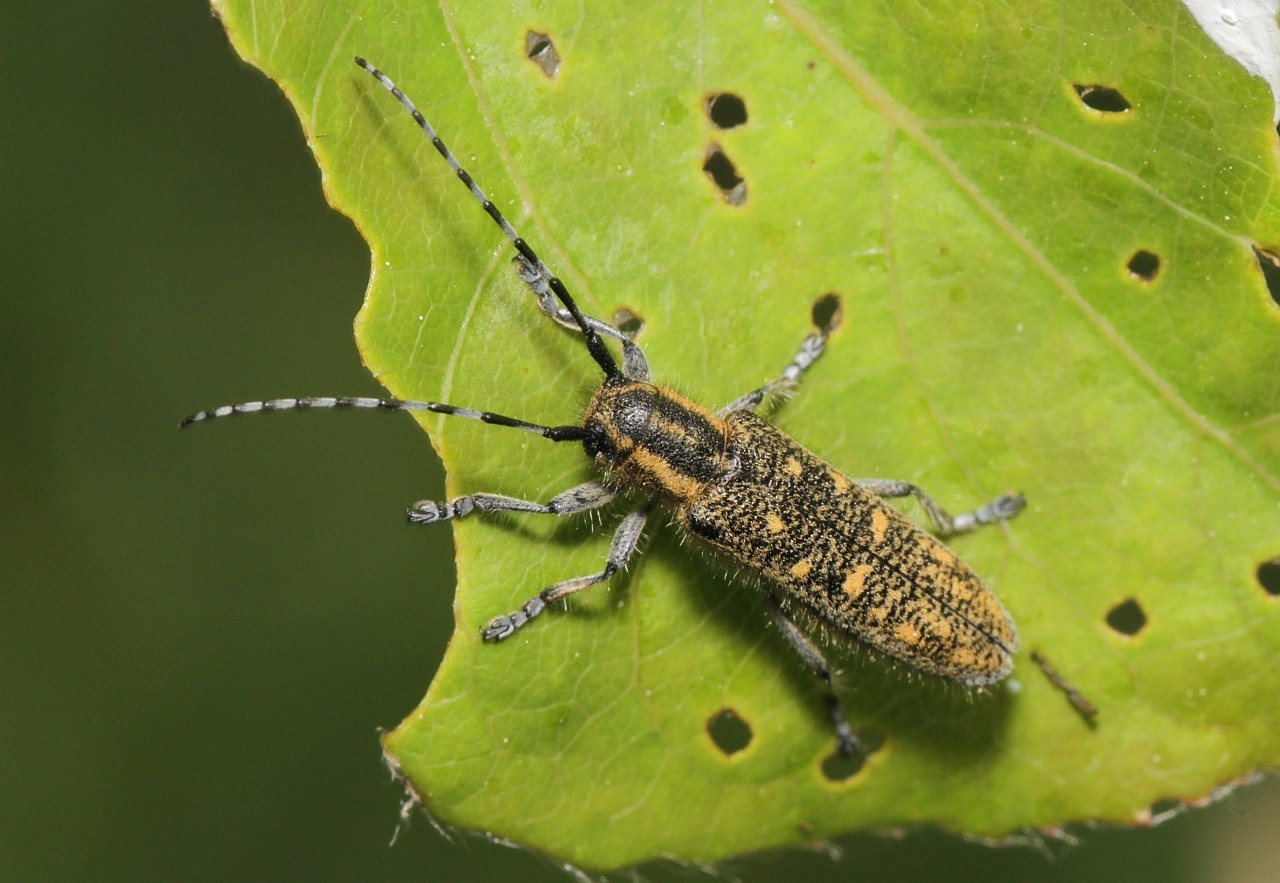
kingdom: Animalia
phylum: Arthropoda
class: Insecta
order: Coleoptera
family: Cerambycidae
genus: Saperda
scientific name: Saperda populnea
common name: Small poplar borer
